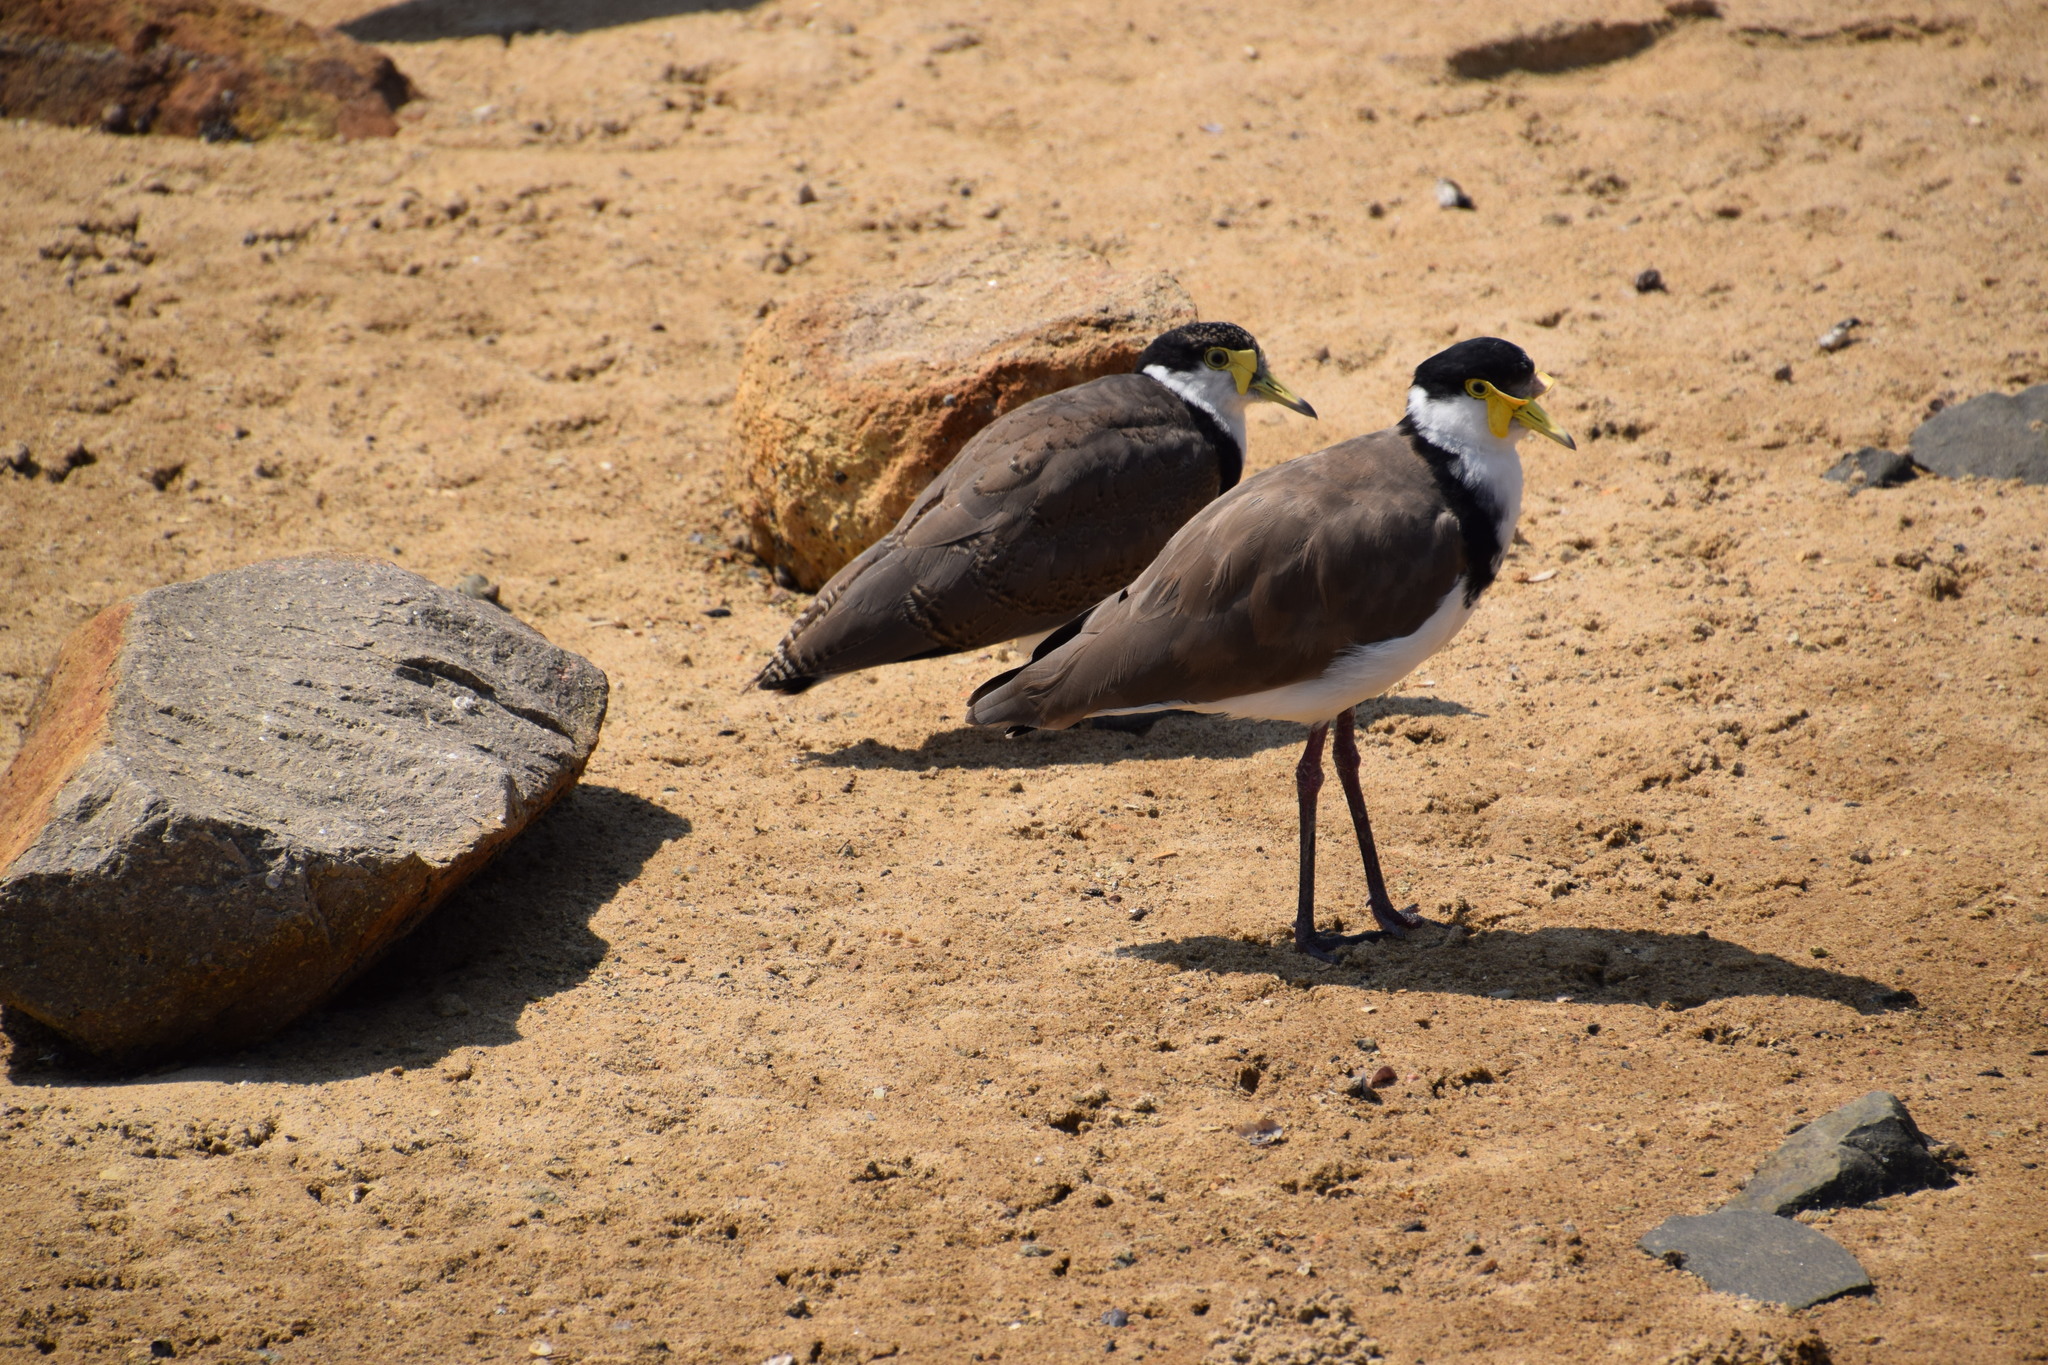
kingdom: Animalia
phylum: Chordata
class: Aves
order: Charadriiformes
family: Charadriidae
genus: Vanellus
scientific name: Vanellus miles
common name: Masked lapwing
